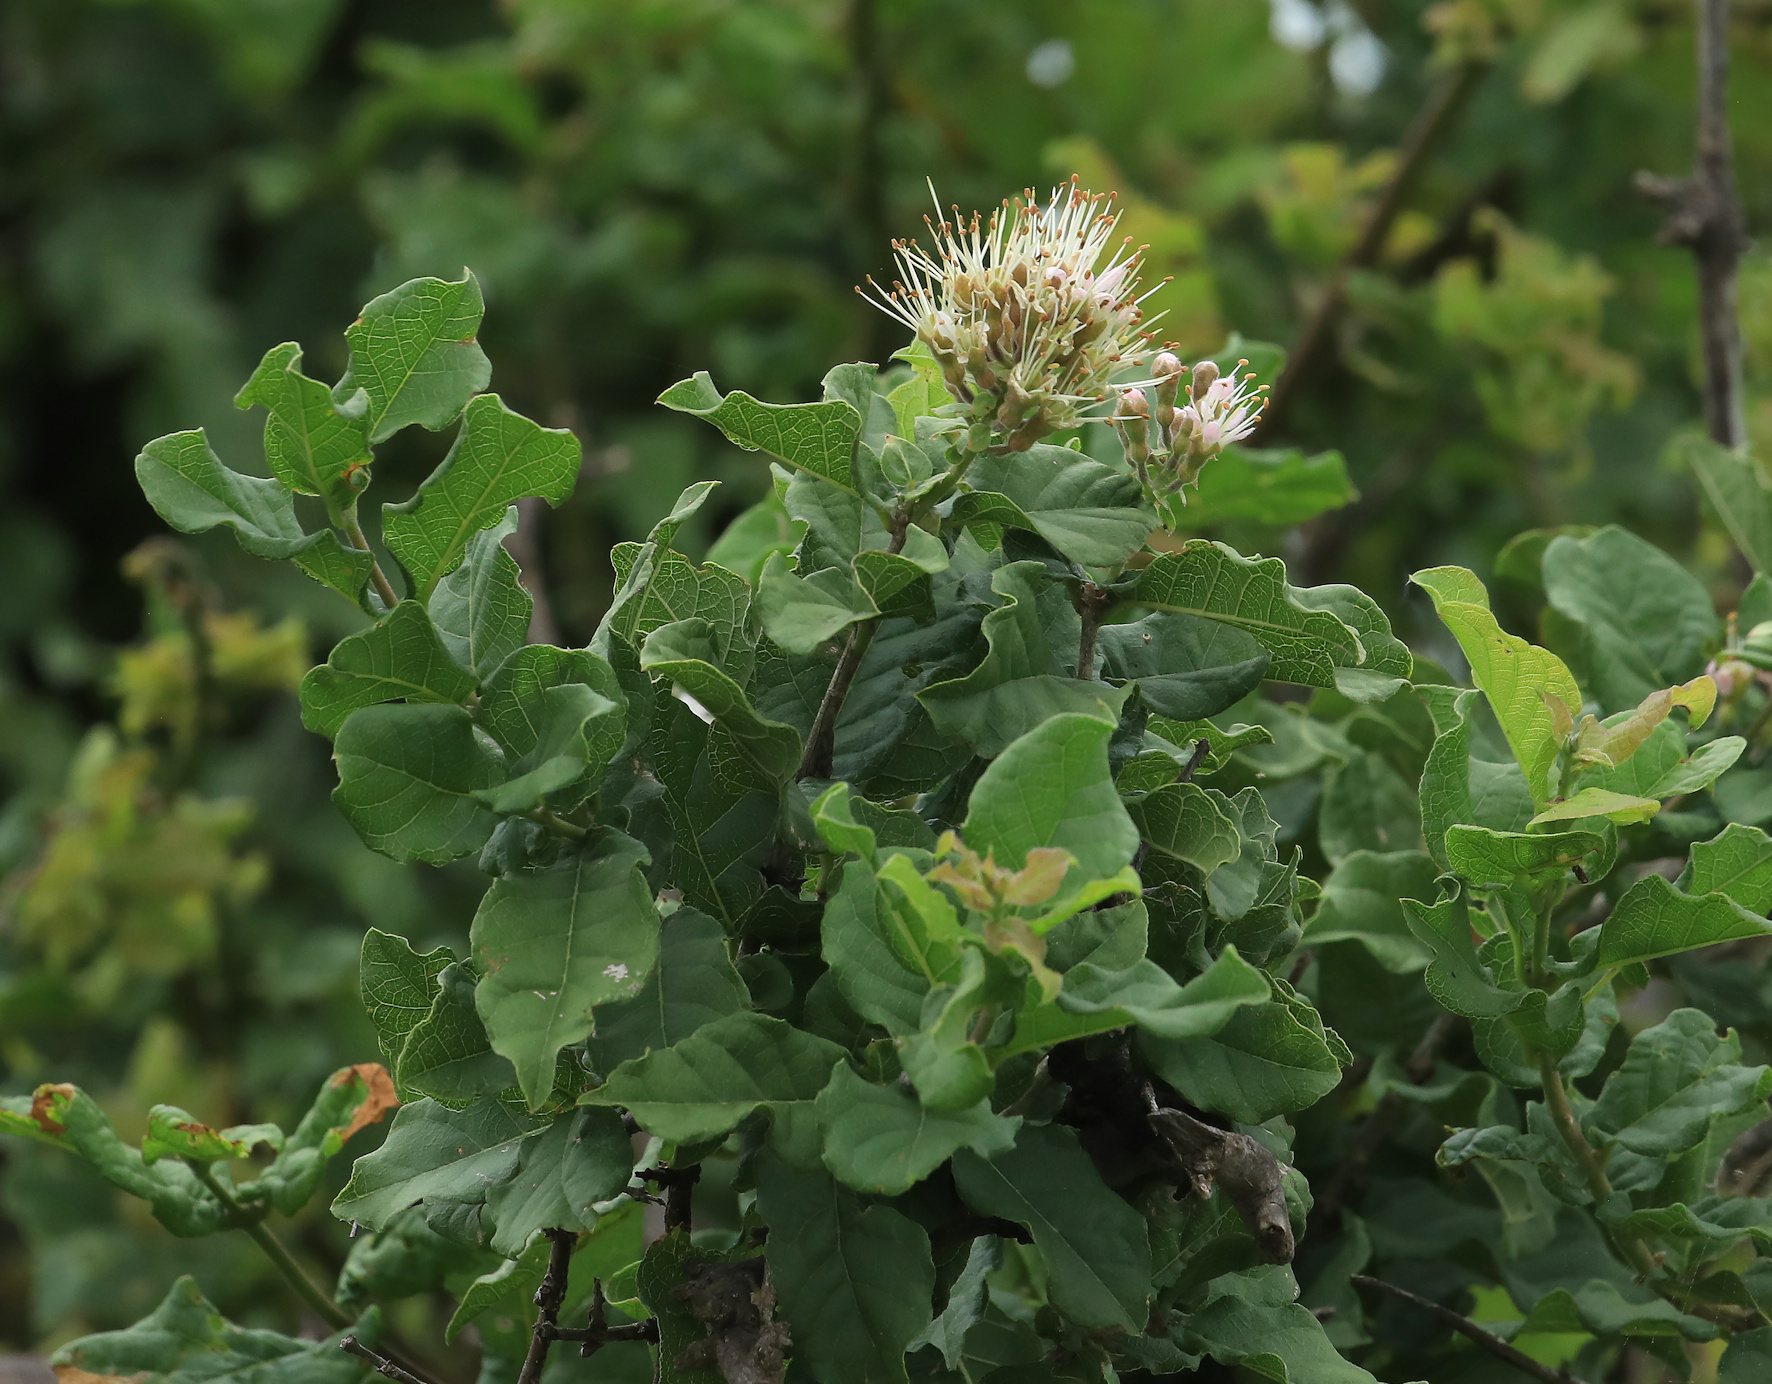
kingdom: Plantae
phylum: Tracheophyta
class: Magnoliopsida
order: Myrtales
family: Combretaceae
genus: Combretum
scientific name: Combretum mossambicense
